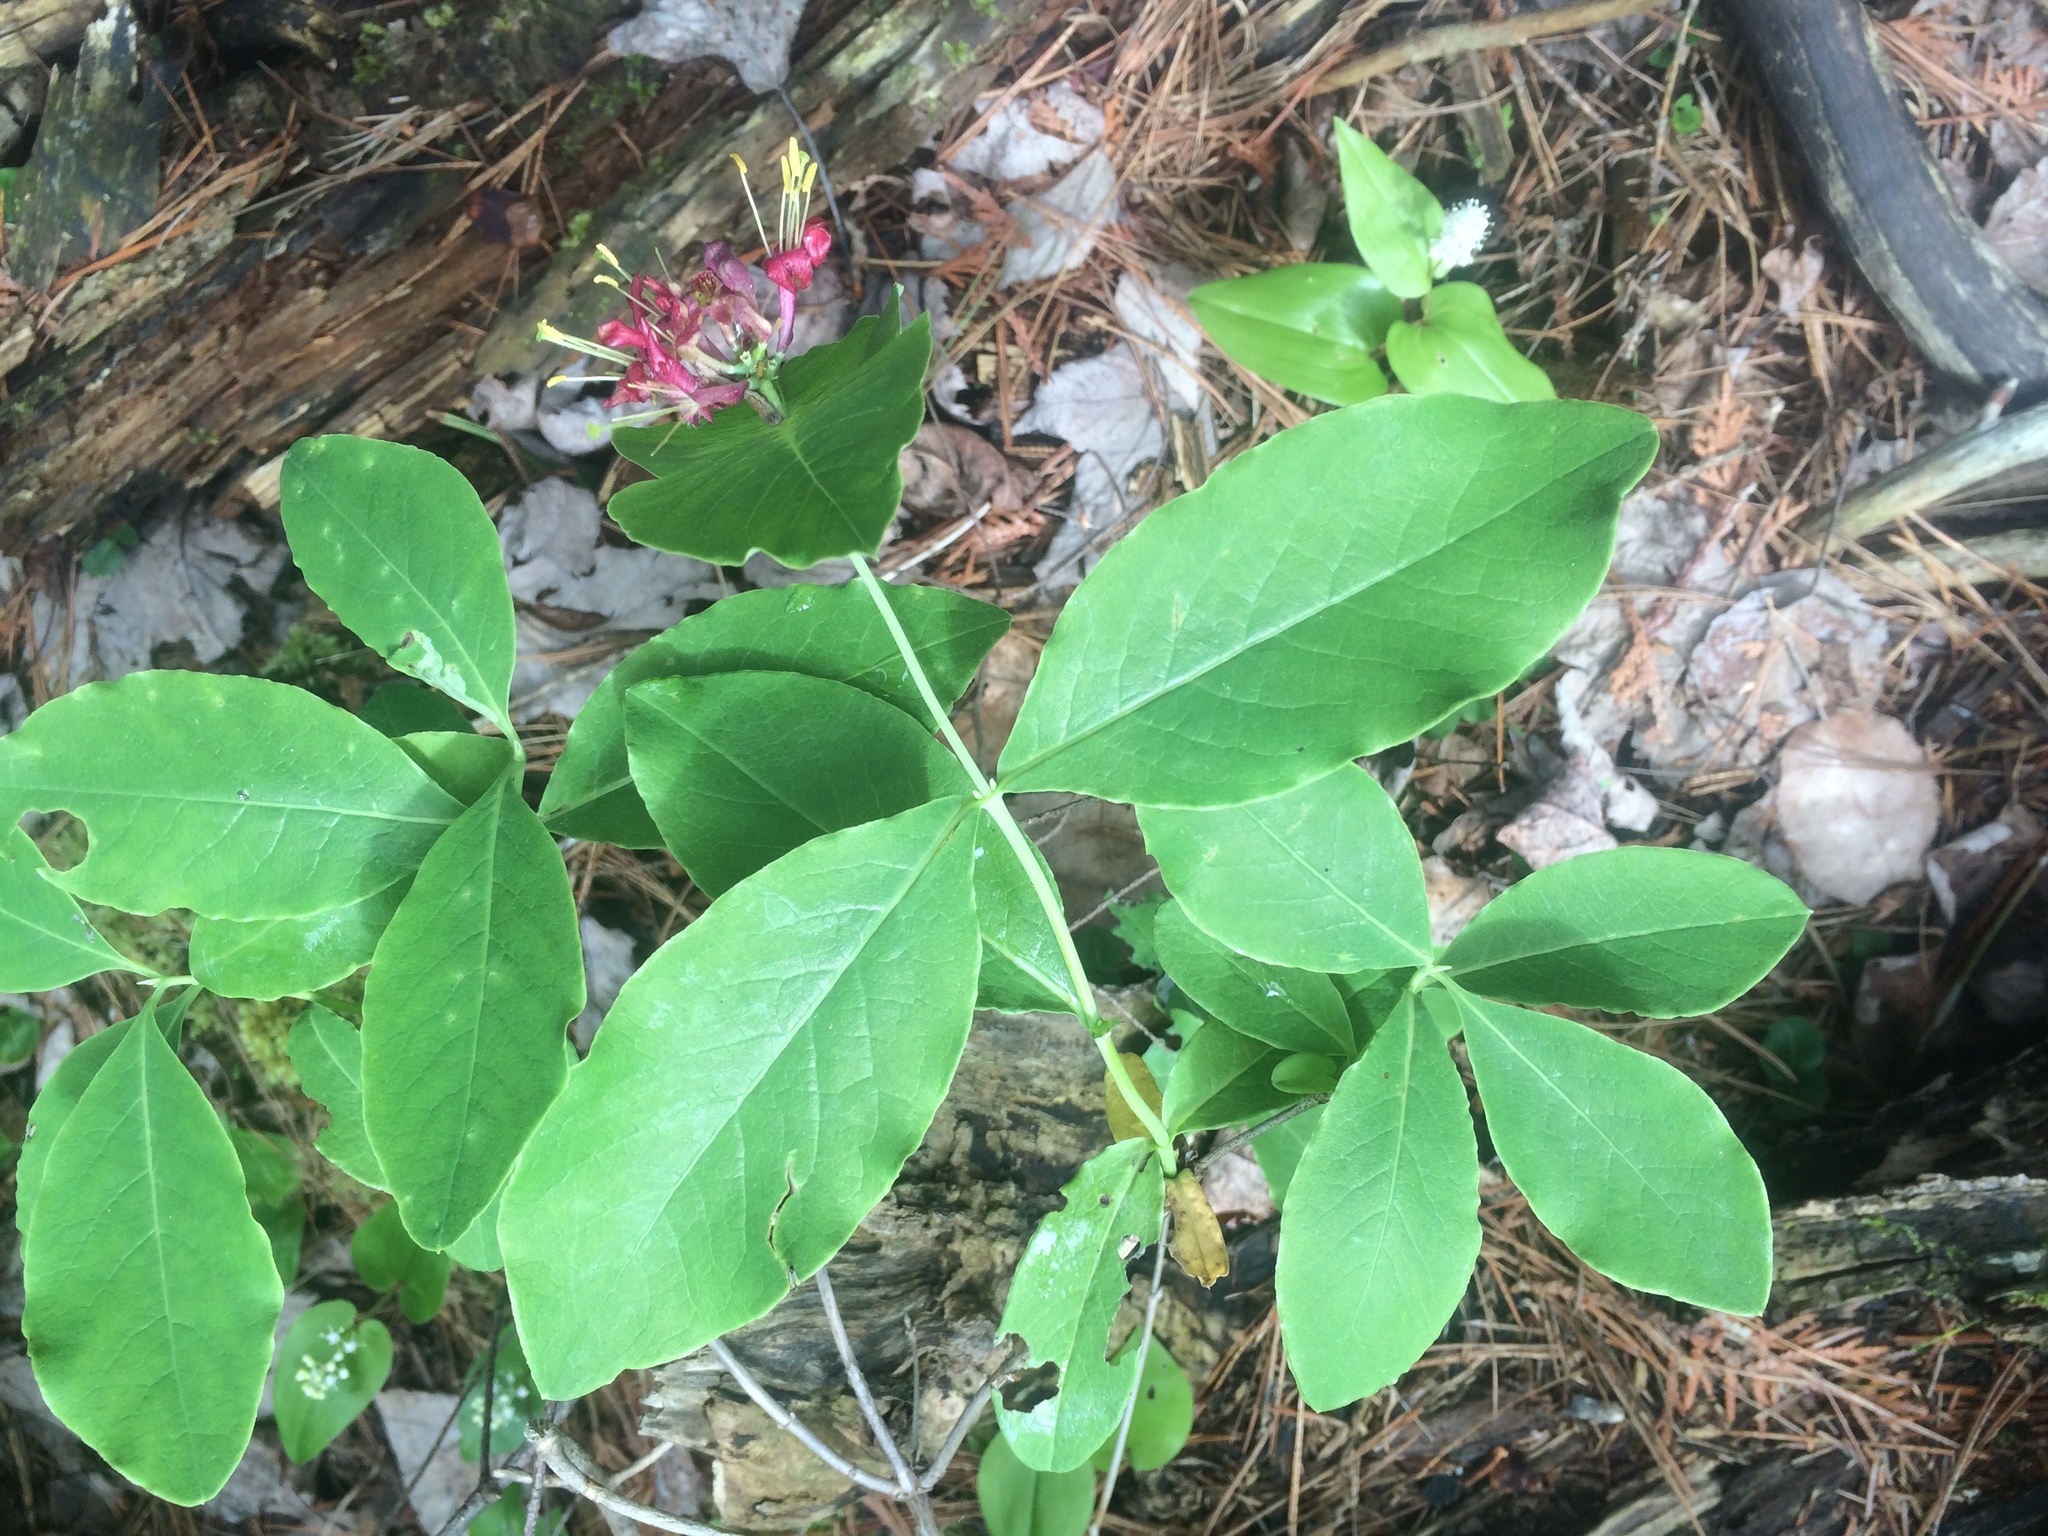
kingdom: Plantae
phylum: Tracheophyta
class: Magnoliopsida
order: Dipsacales
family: Caprifoliaceae
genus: Lonicera
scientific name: Lonicera dioica
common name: Limber honeysuckle
